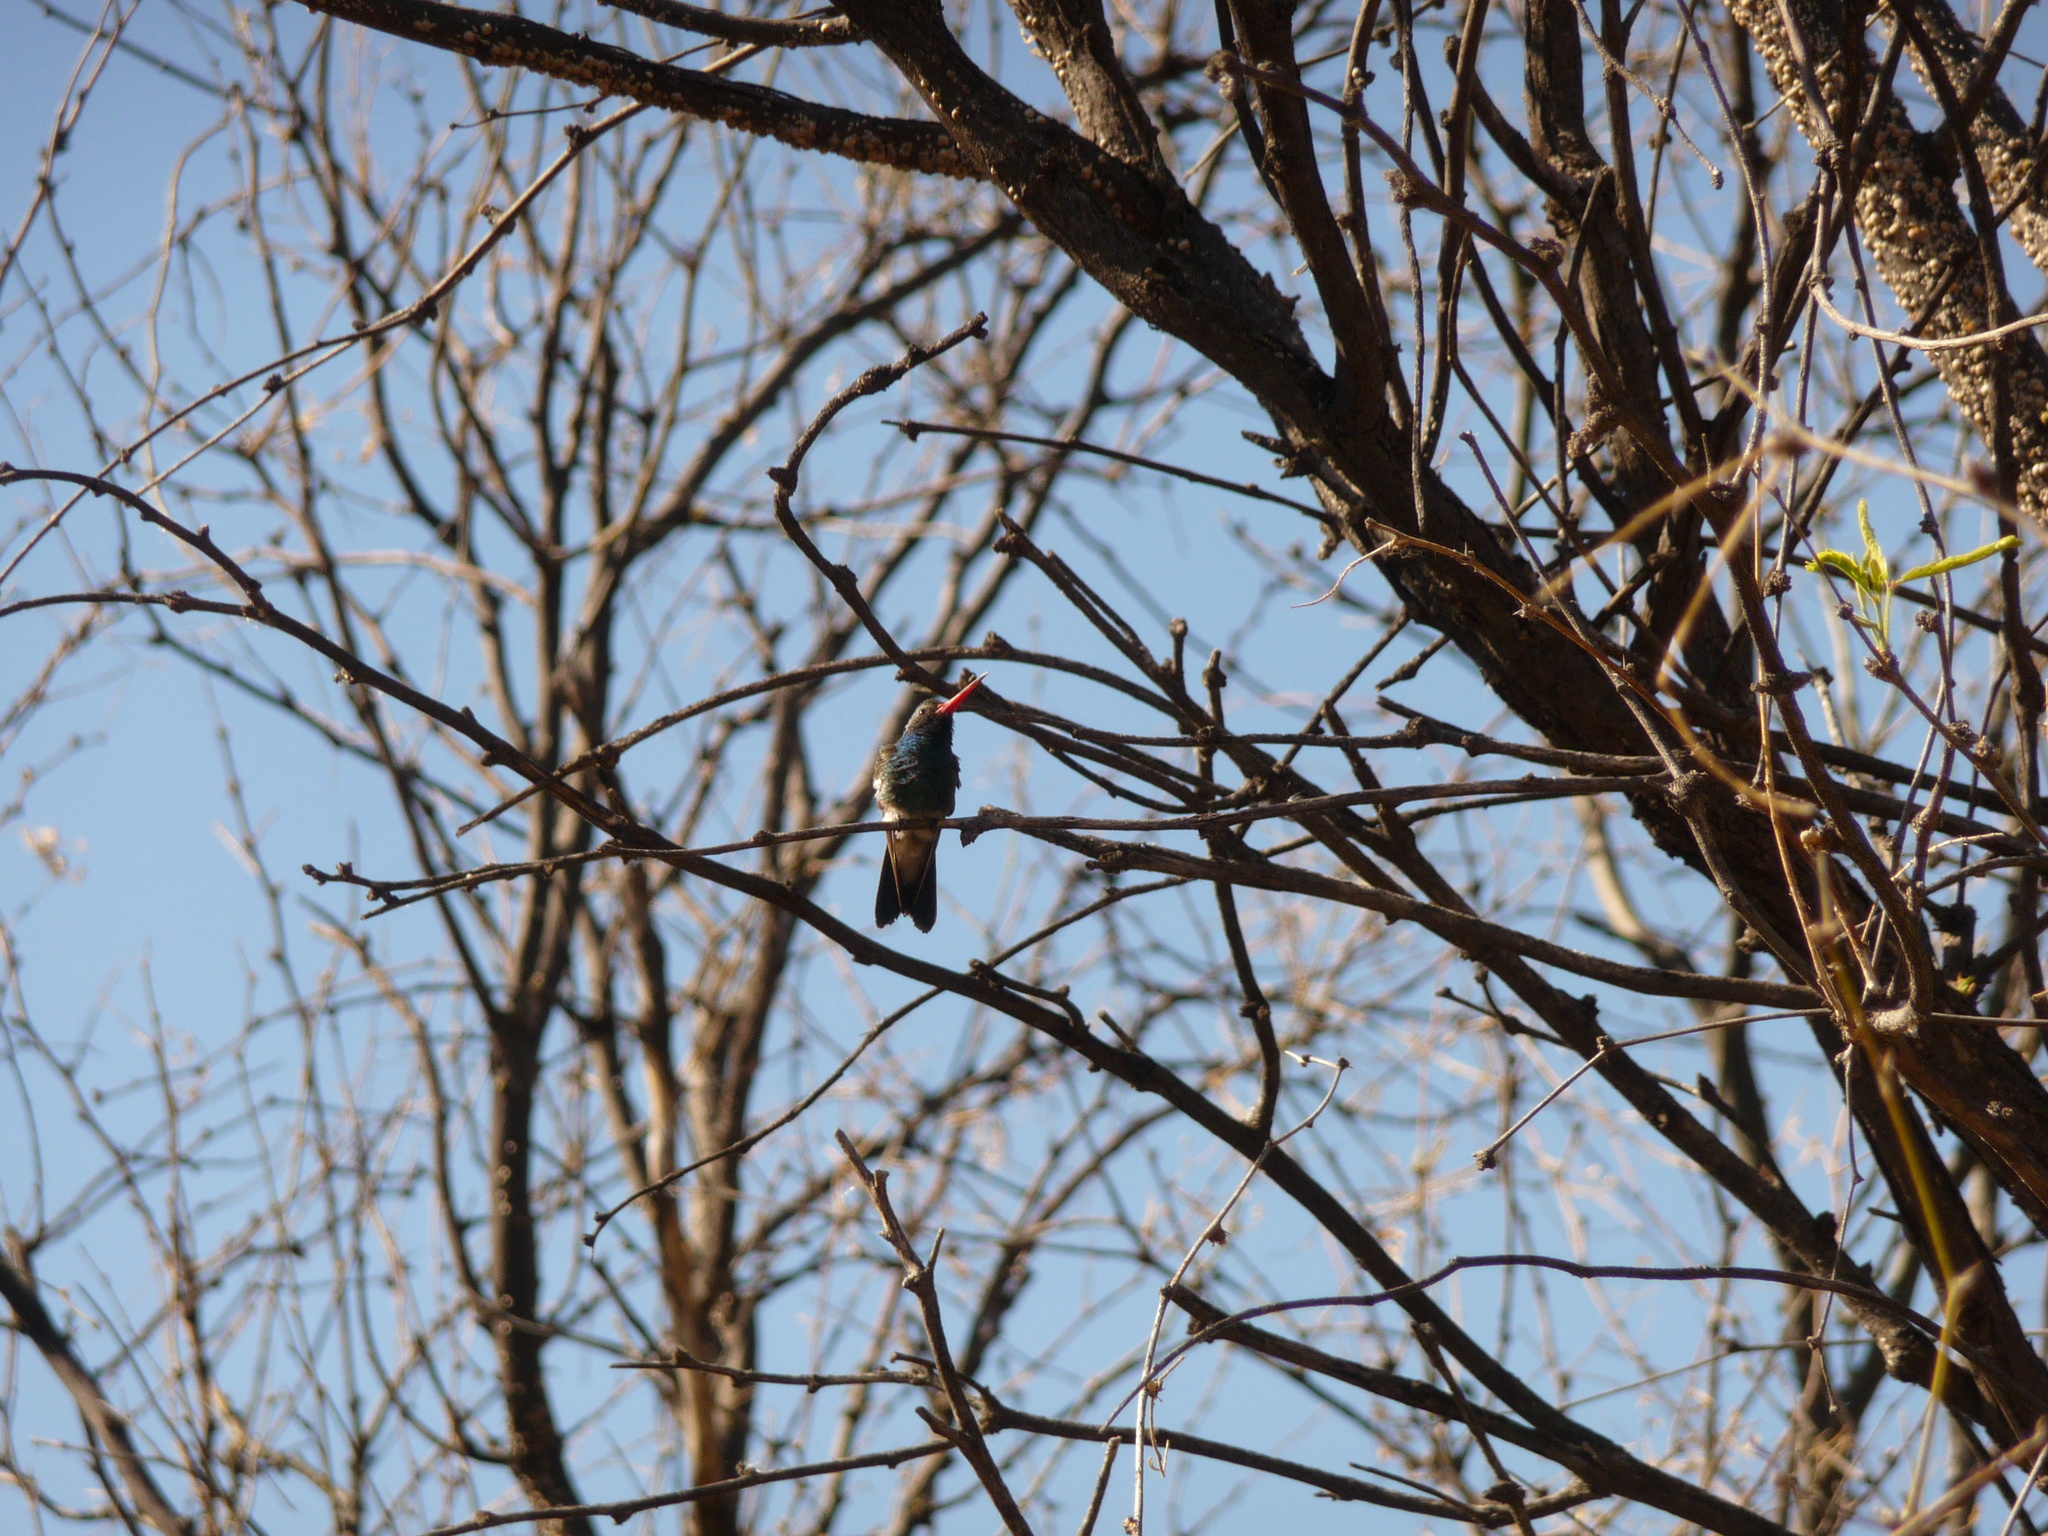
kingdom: Animalia
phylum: Chordata
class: Aves
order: Apodiformes
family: Trochilidae
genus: Cynanthus
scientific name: Cynanthus latirostris
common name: Broad-billed hummingbird
